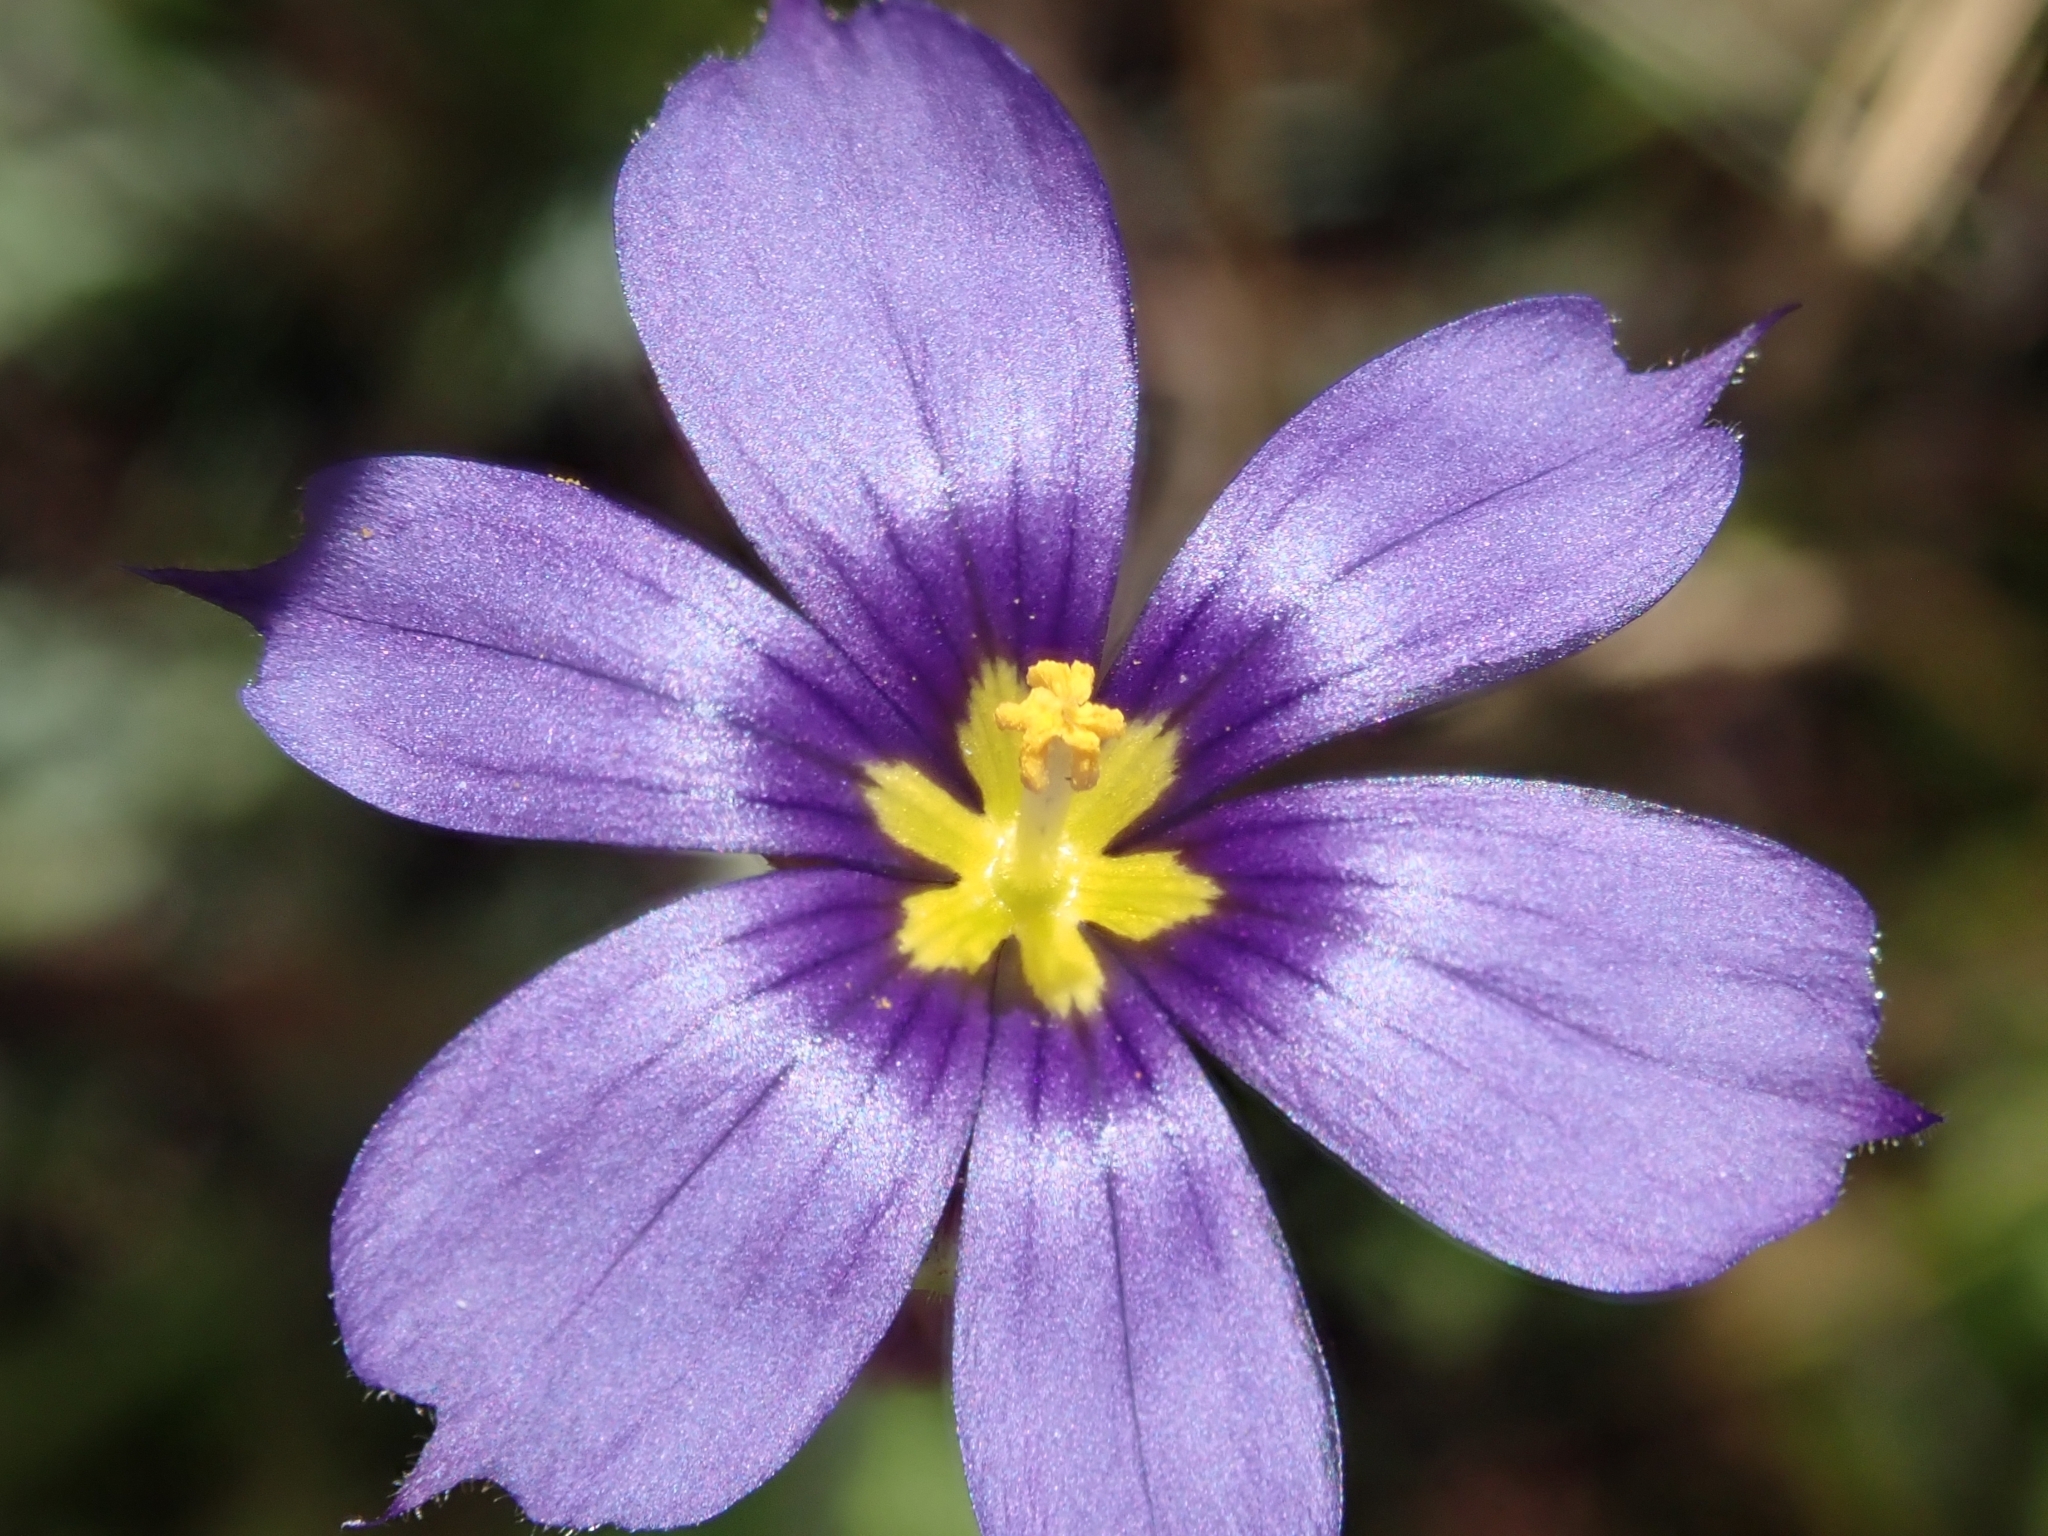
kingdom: Plantae
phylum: Tracheophyta
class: Liliopsida
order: Asparagales
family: Iridaceae
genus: Sisyrinchium
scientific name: Sisyrinchium bellum
